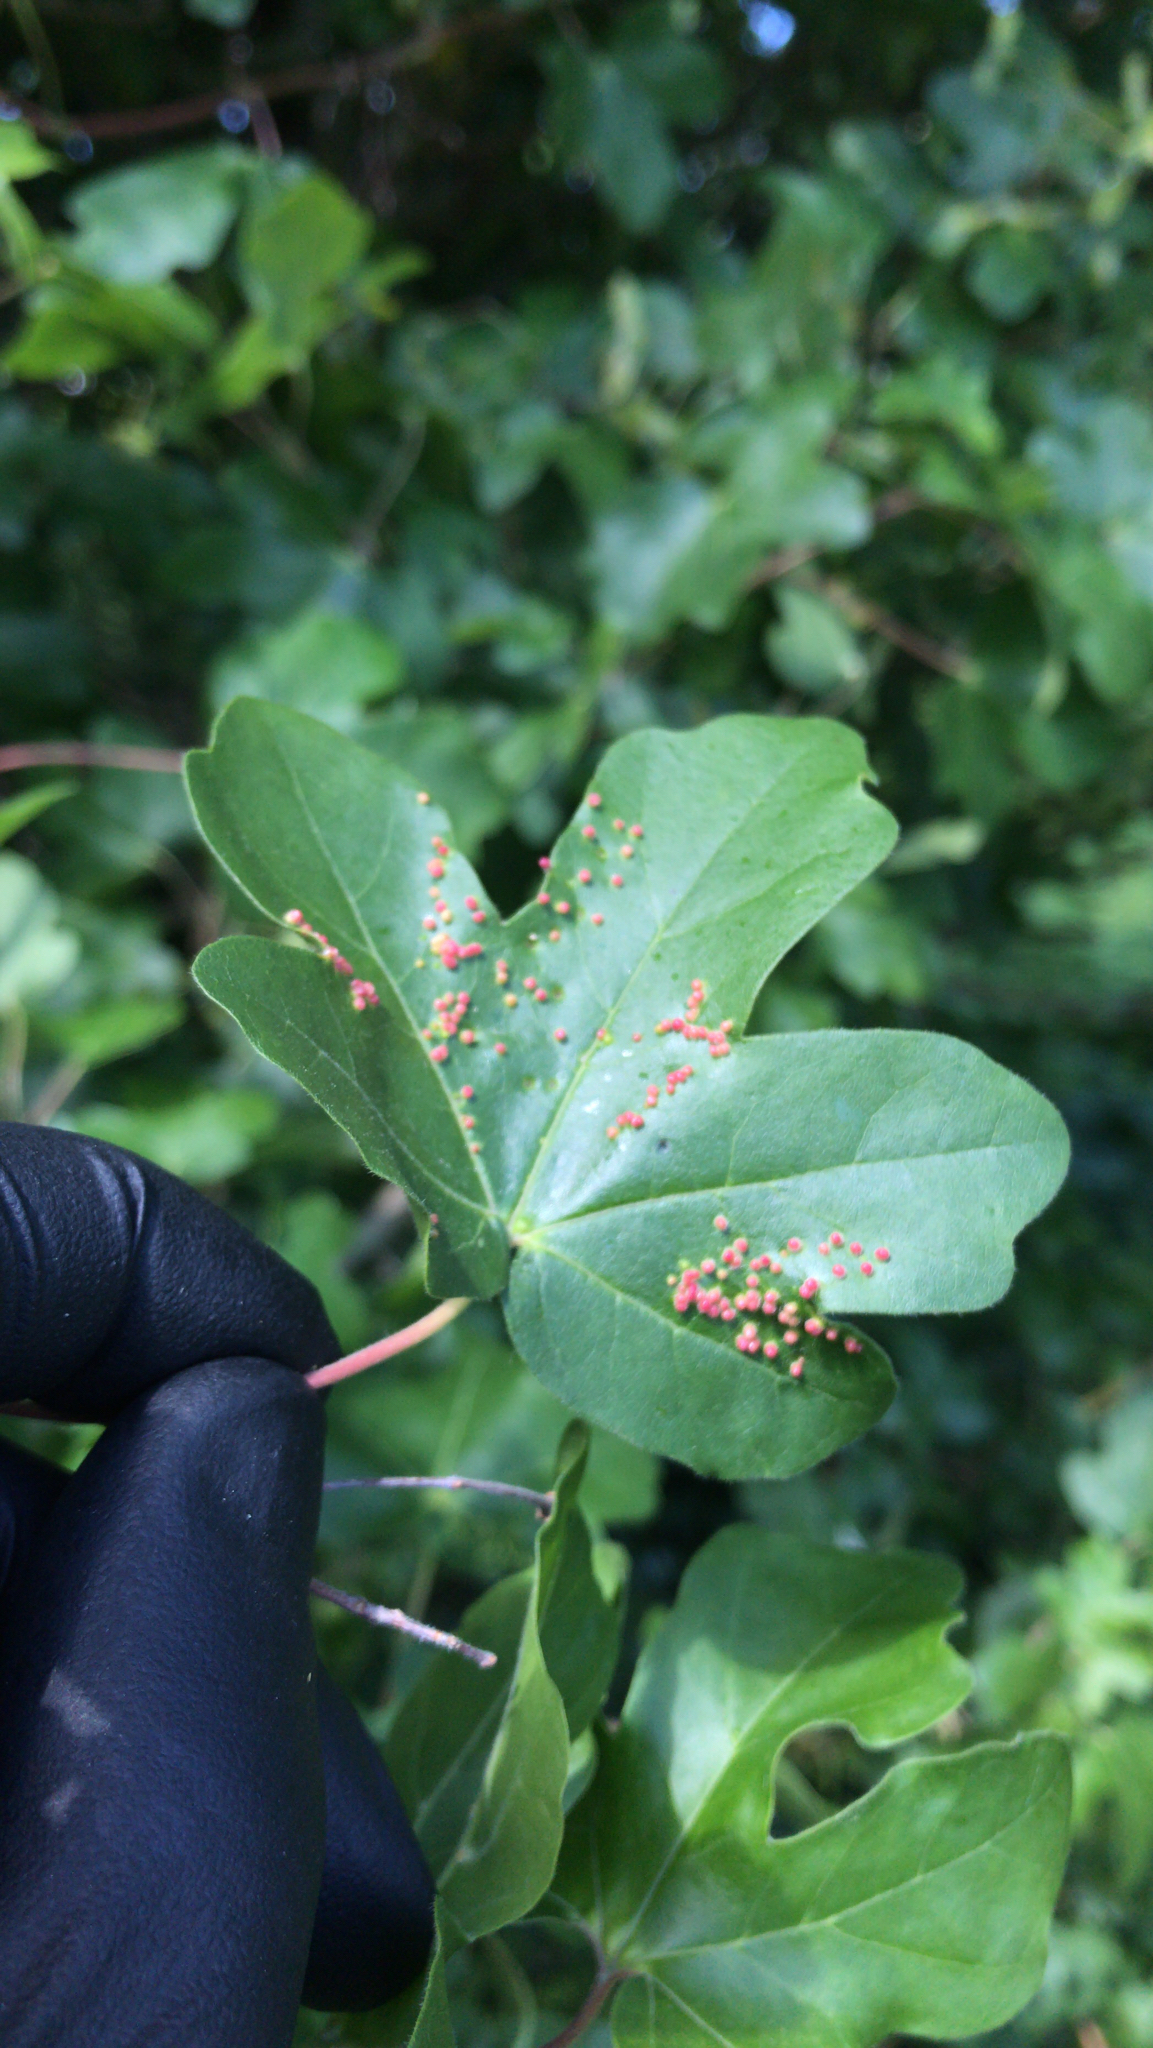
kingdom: Animalia
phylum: Arthropoda
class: Arachnida
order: Trombidiformes
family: Eriophyidae
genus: Aceria
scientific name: Aceria myriadeum
